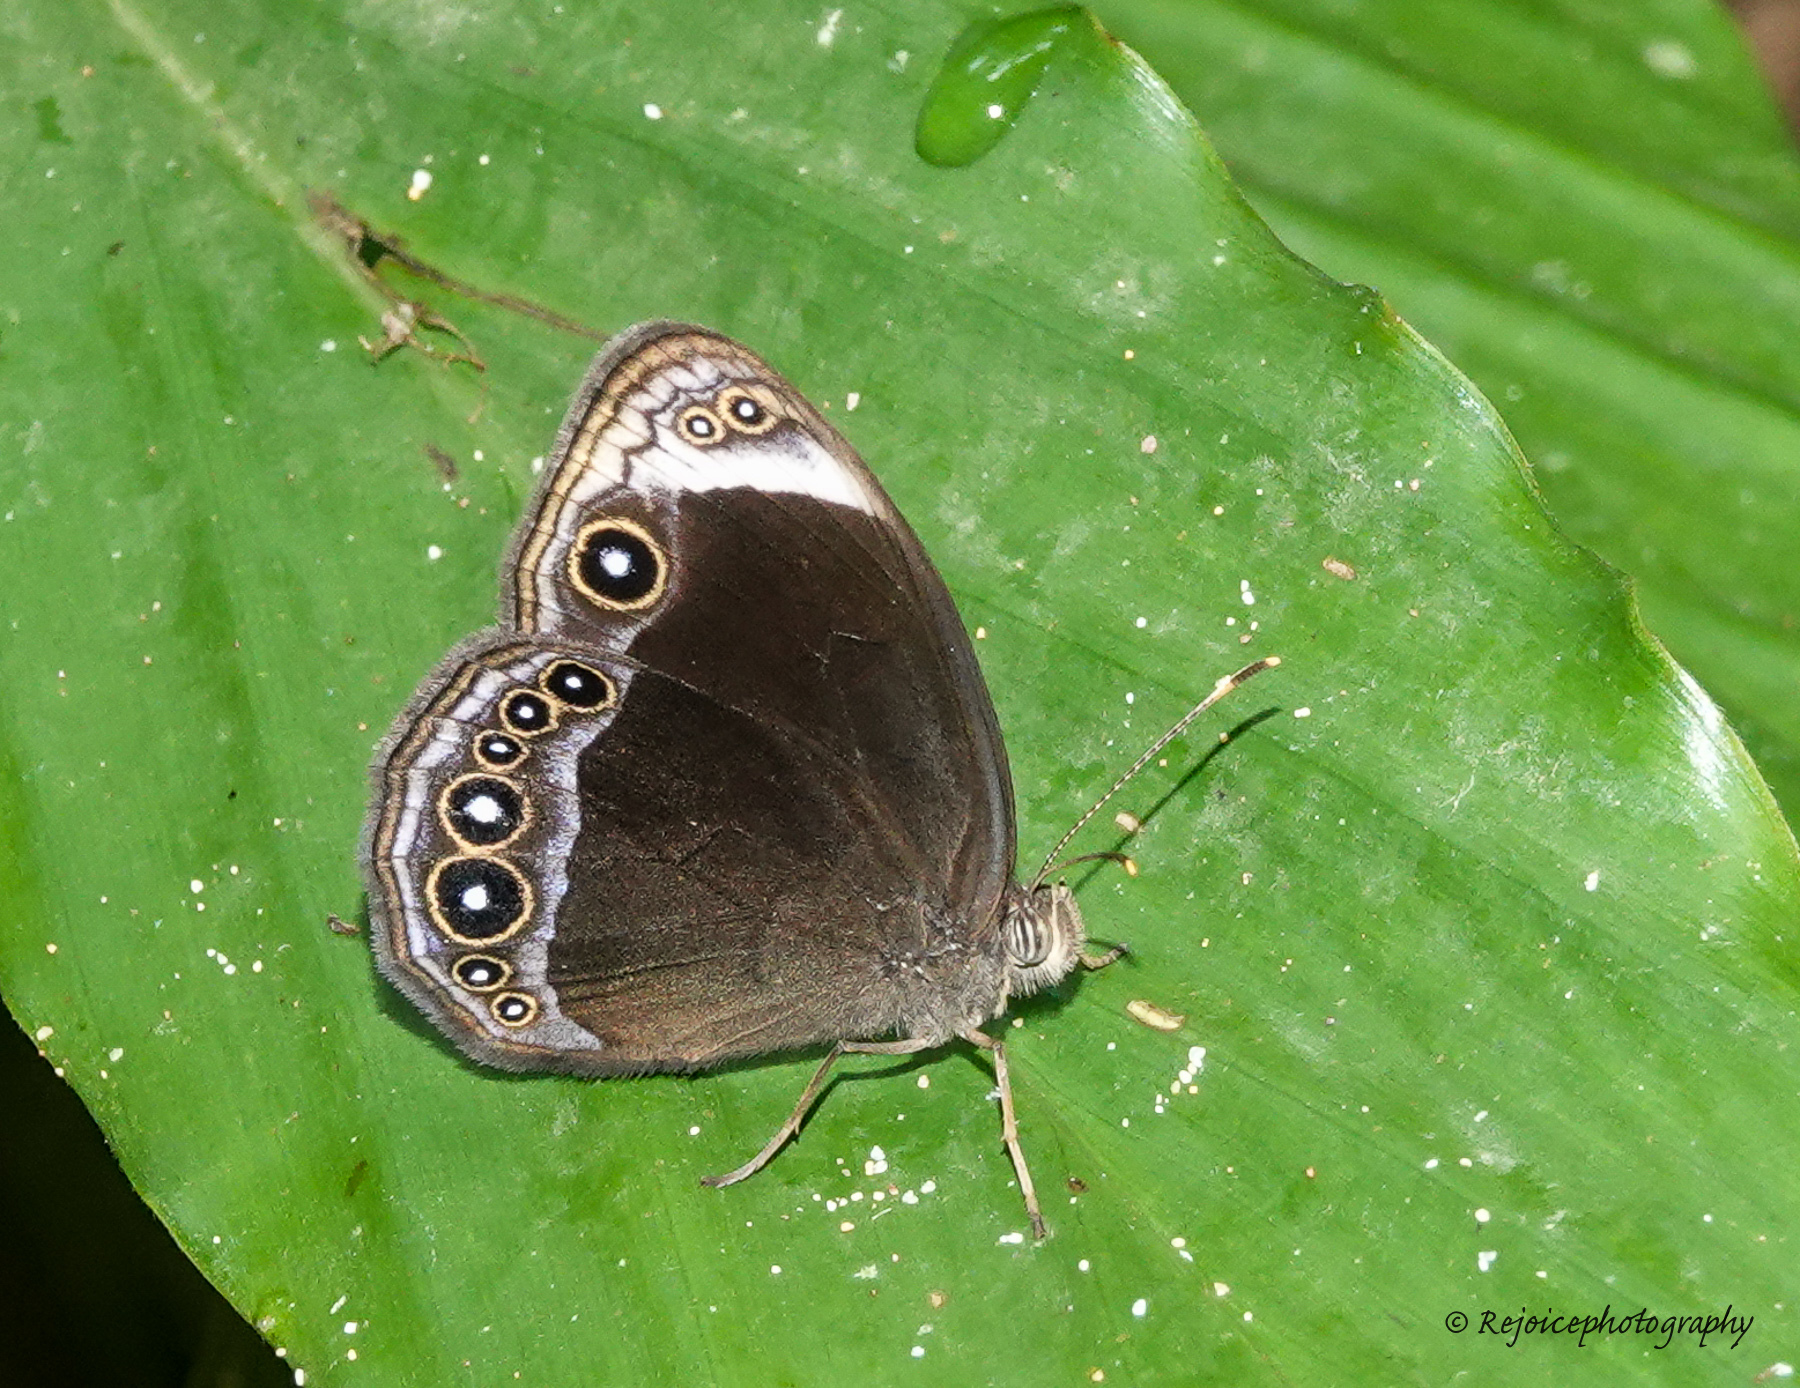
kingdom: Animalia
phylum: Arthropoda
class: Insecta
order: Lepidoptera
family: Nymphalidae
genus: Mycalesis
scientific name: Mycalesis anaxias
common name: White-bar bushbrown
